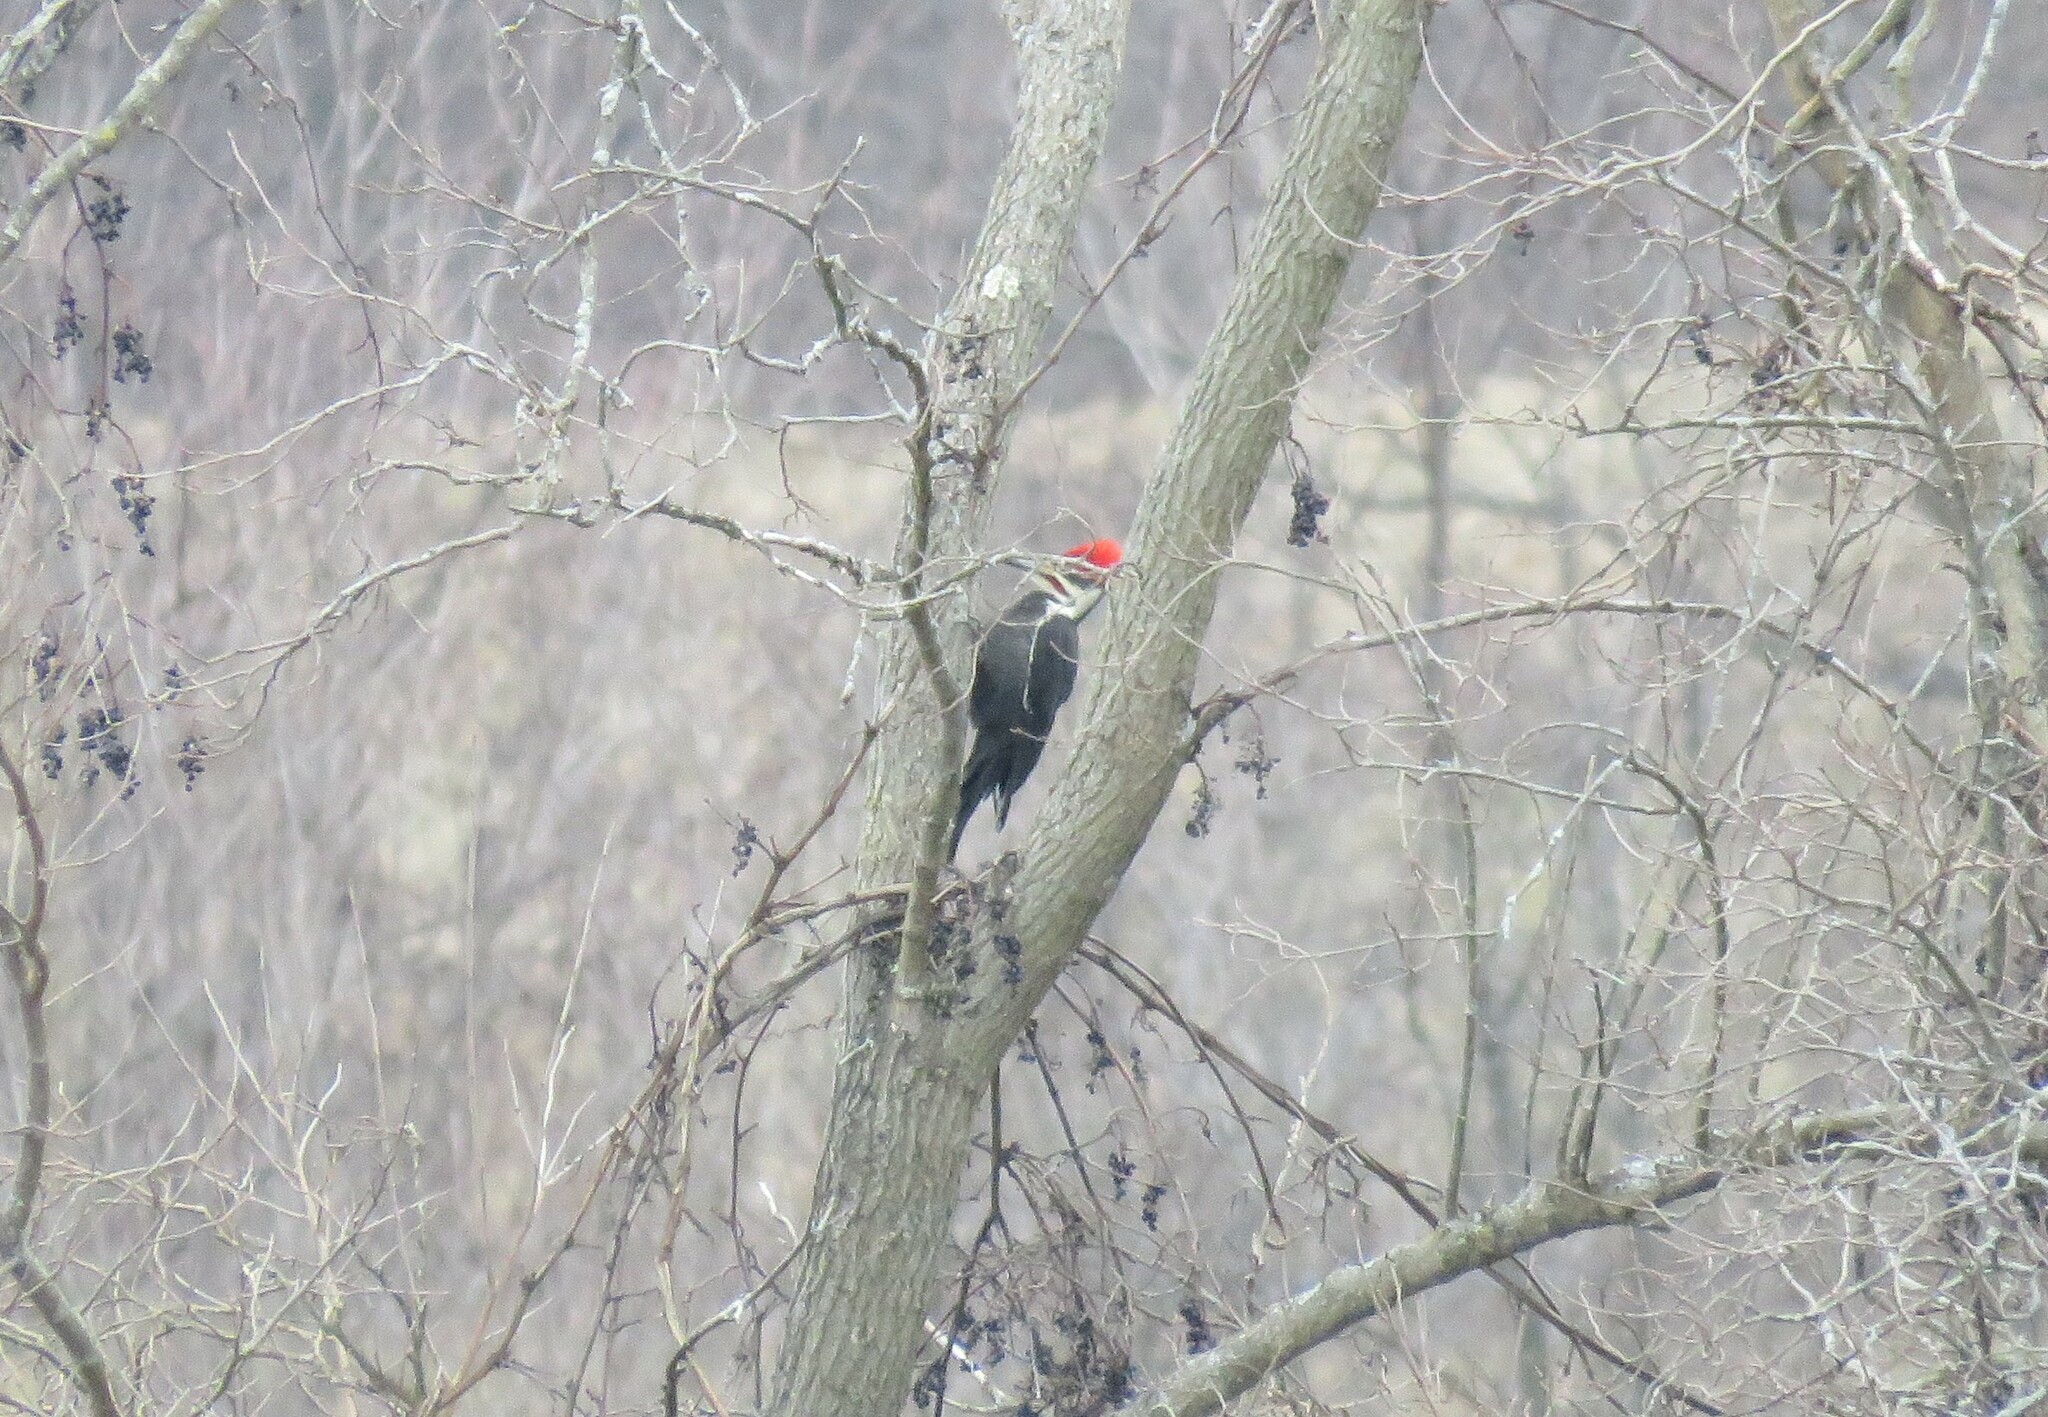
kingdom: Animalia
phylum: Chordata
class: Aves
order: Piciformes
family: Picidae
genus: Dryocopus
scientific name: Dryocopus pileatus
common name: Pileated woodpecker
